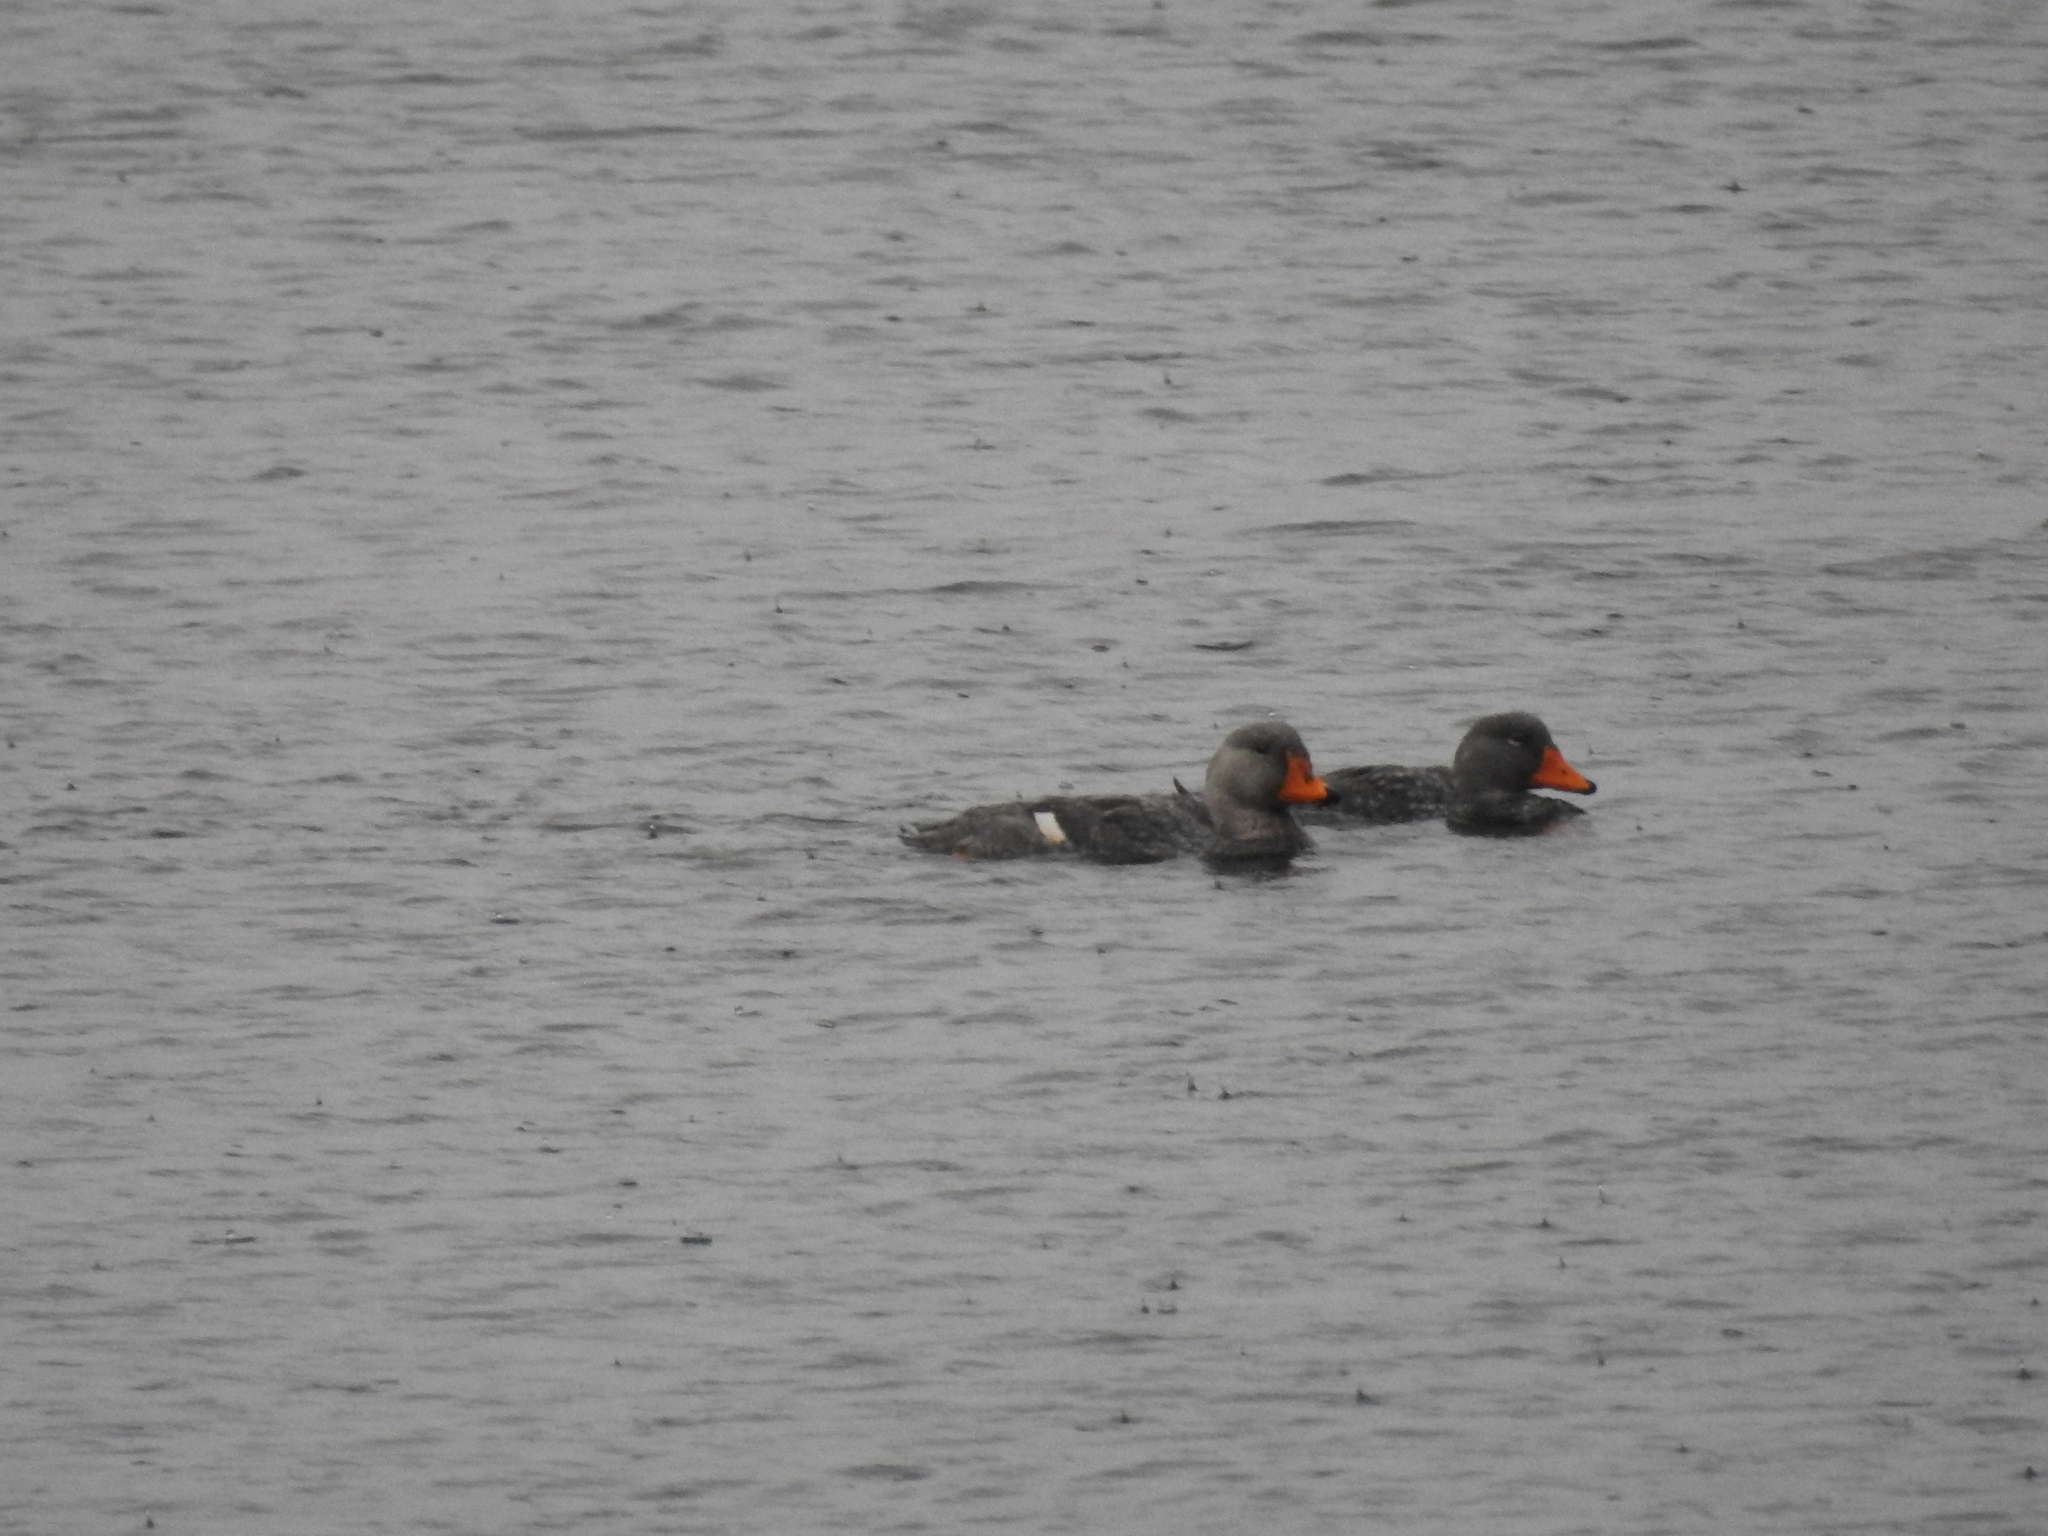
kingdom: Animalia
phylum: Chordata
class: Aves
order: Anseriformes
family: Anatidae
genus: Tachyeres
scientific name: Tachyeres pteneres
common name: Fuegian steamer duck
